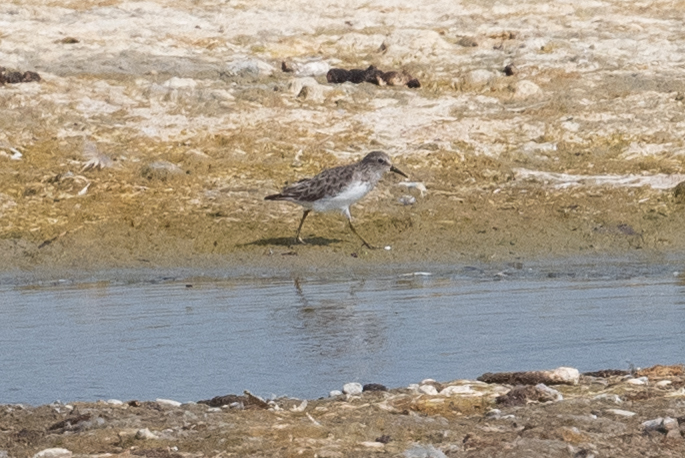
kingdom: Animalia
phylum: Chordata
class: Aves
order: Charadriiformes
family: Scolopacidae
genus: Calidris
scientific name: Calidris minutilla
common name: Least sandpiper
